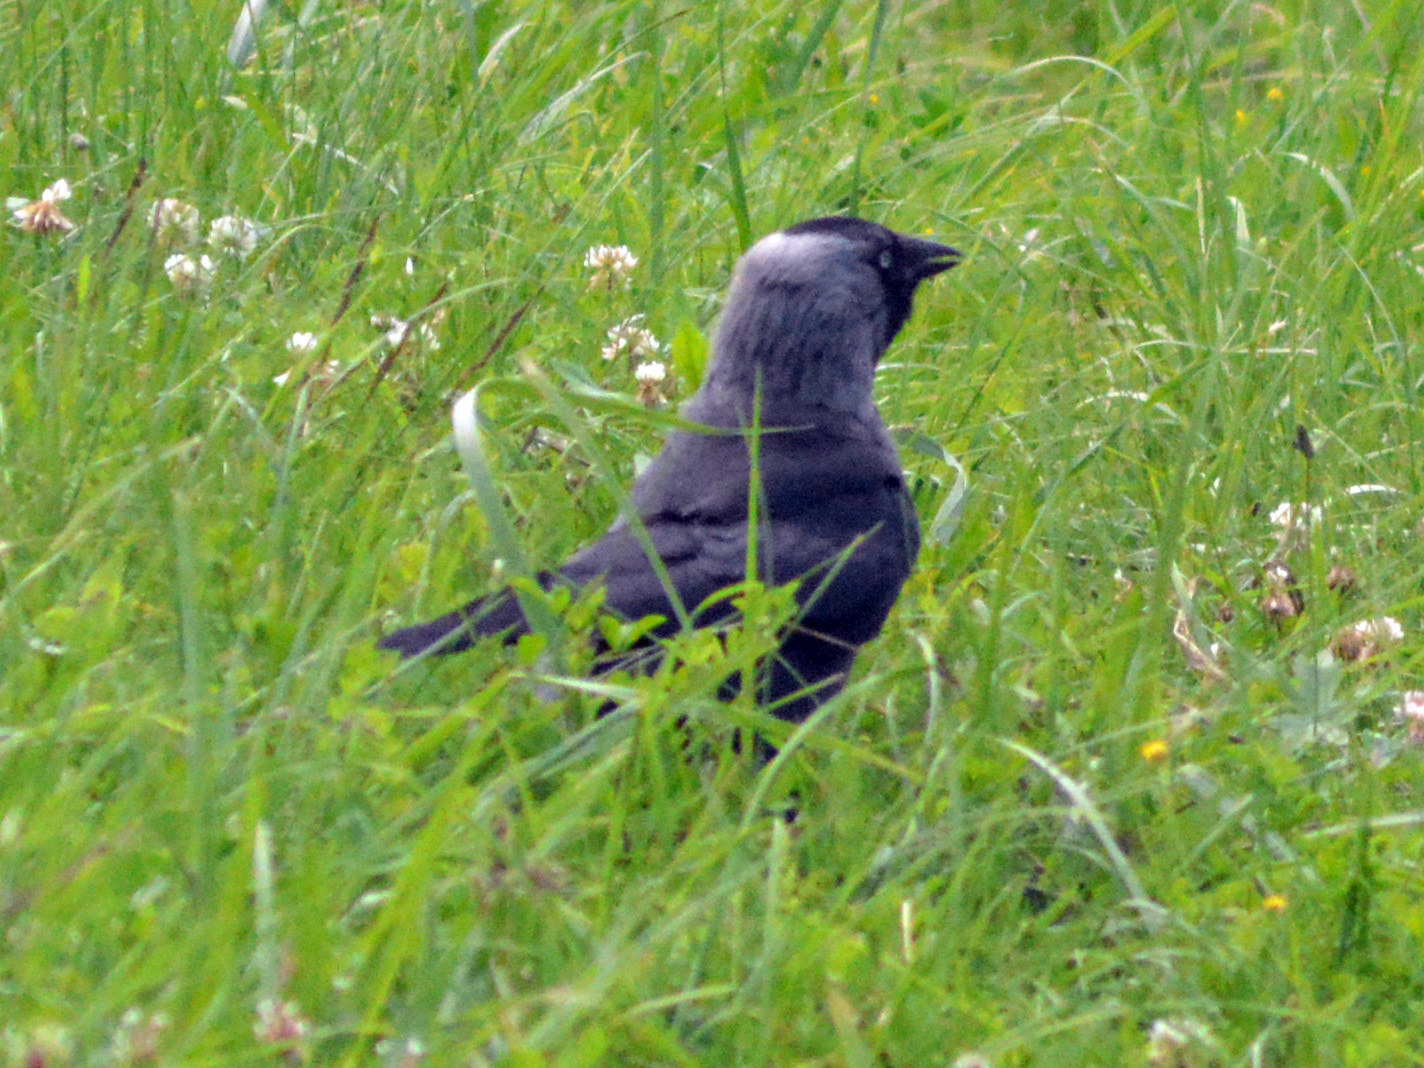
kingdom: Animalia
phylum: Chordata
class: Aves
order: Passeriformes
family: Corvidae
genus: Coloeus
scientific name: Coloeus monedula
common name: Western jackdaw
